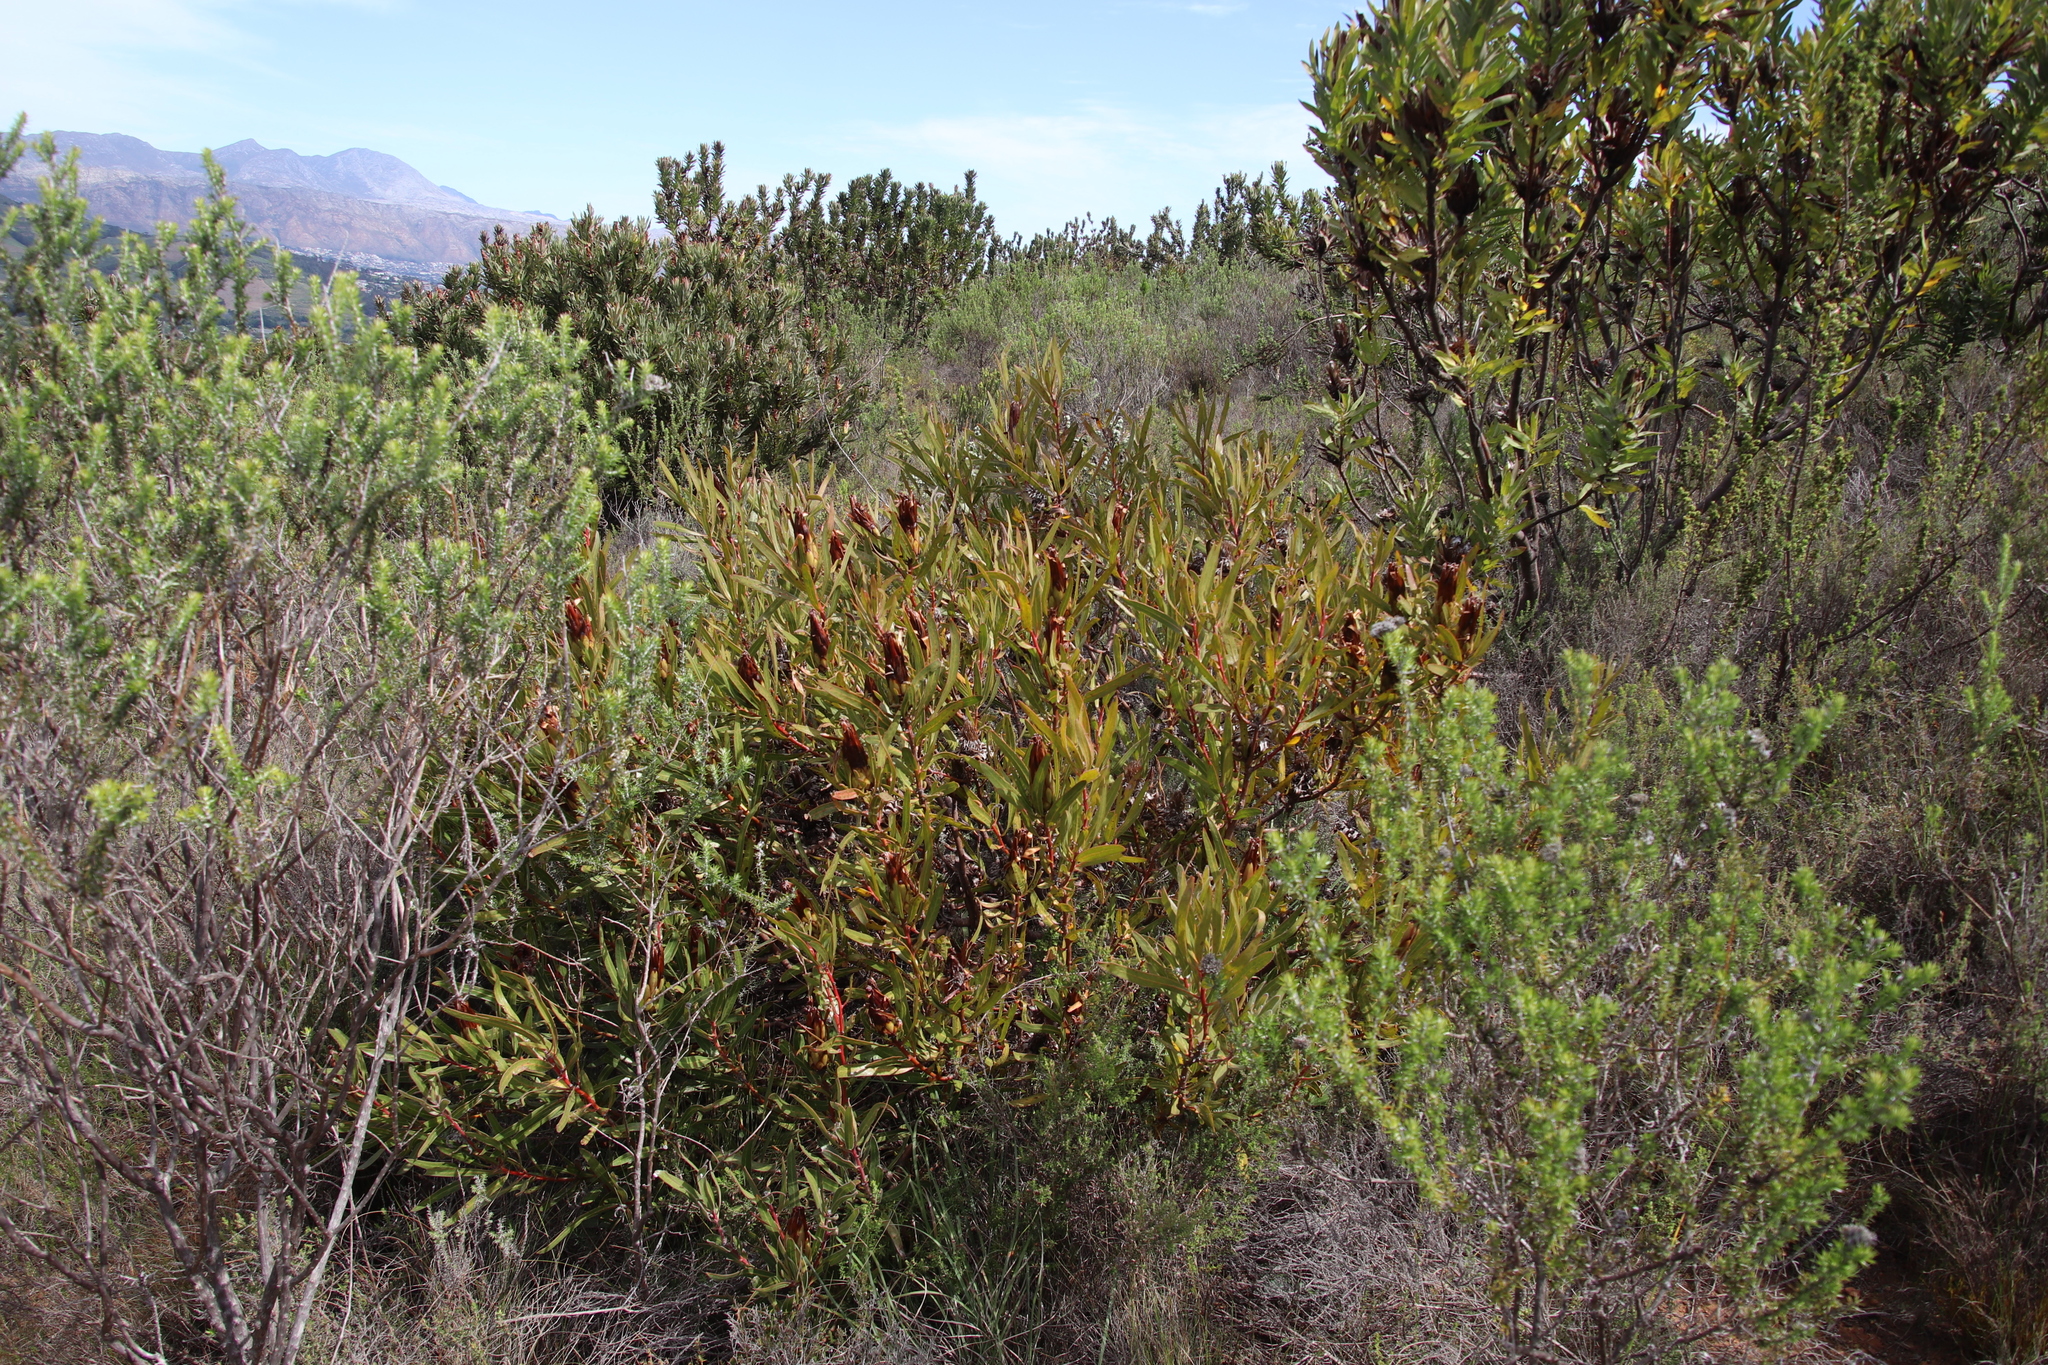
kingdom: Plantae
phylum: Tracheophyta
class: Magnoliopsida
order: Proteales
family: Proteaceae
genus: Protea
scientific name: Protea burchellii
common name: Burchell's sugarbush
